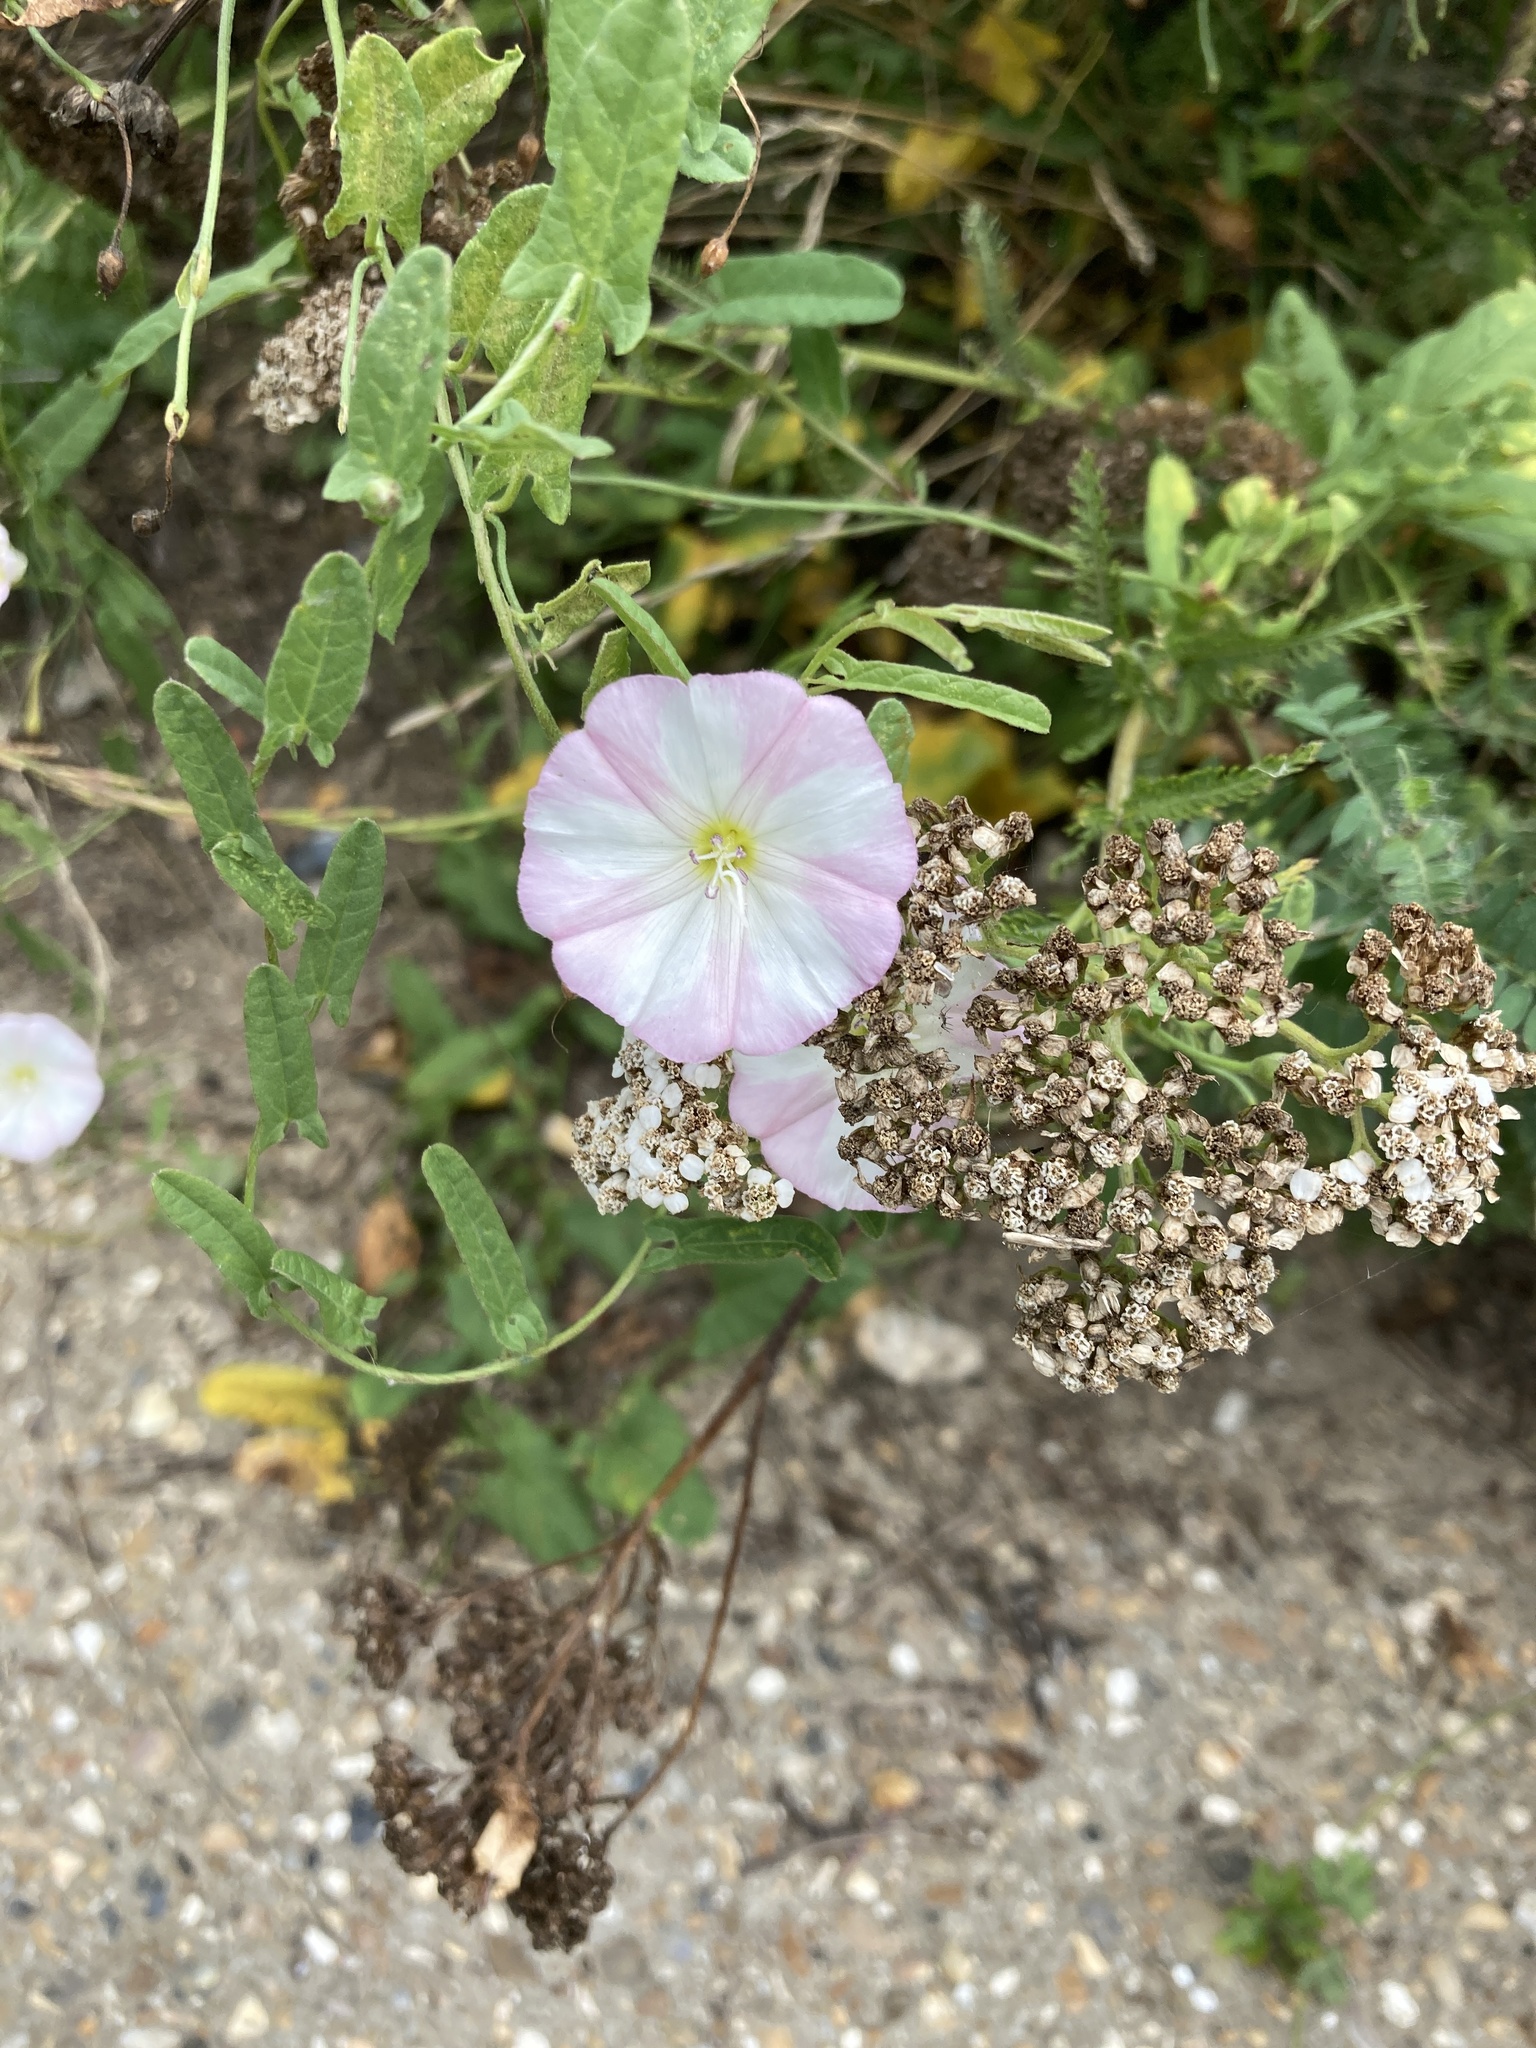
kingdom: Plantae
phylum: Tracheophyta
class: Magnoliopsida
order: Solanales
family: Convolvulaceae
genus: Convolvulus
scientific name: Convolvulus arvensis
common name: Field bindweed
